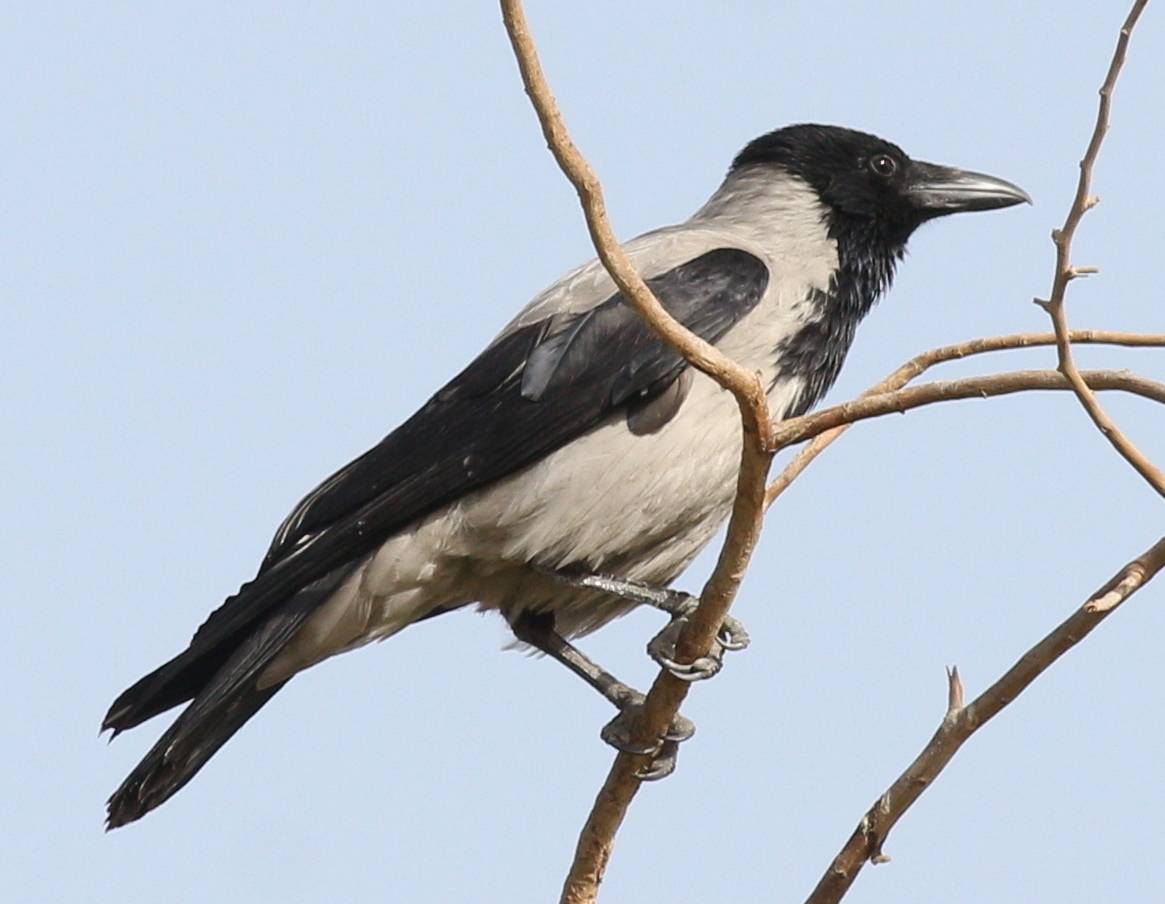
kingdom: Animalia
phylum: Chordata
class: Aves
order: Passeriformes
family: Corvidae
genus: Corvus
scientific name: Corvus cornix
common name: Hooded crow
